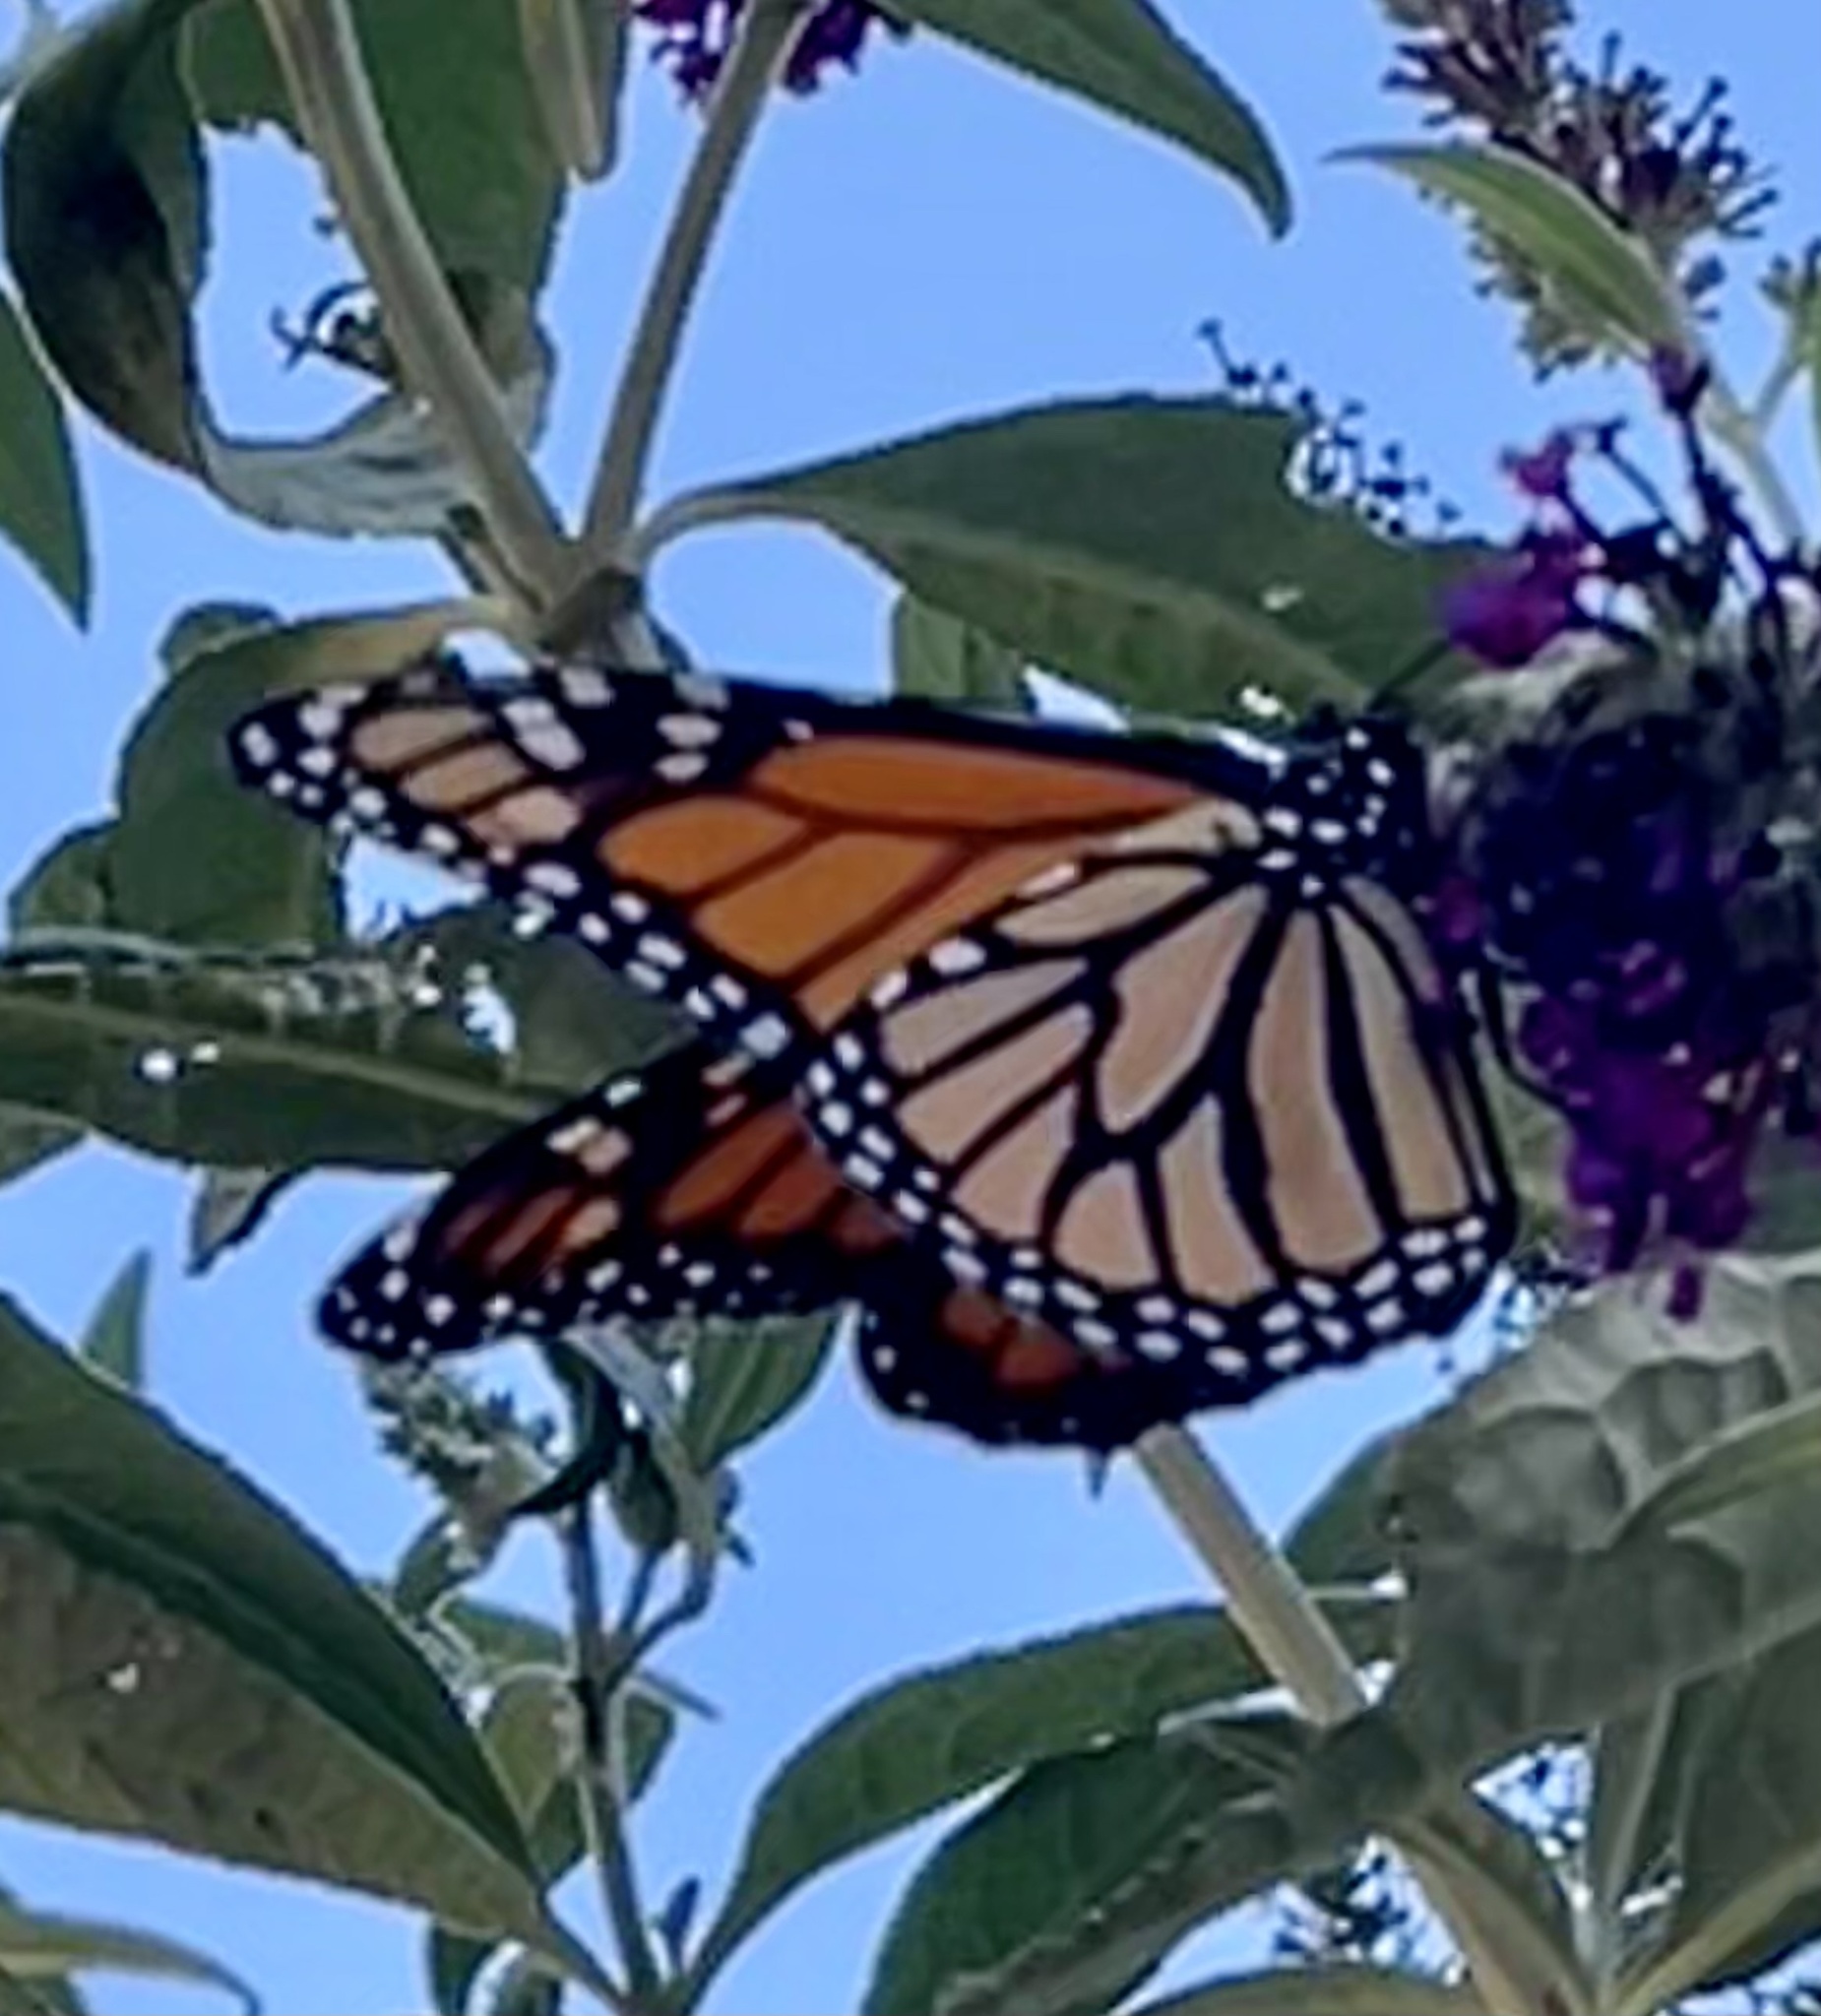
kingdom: Animalia
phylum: Arthropoda
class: Insecta
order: Lepidoptera
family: Nymphalidae
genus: Danaus
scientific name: Danaus plexippus
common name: Monarch
